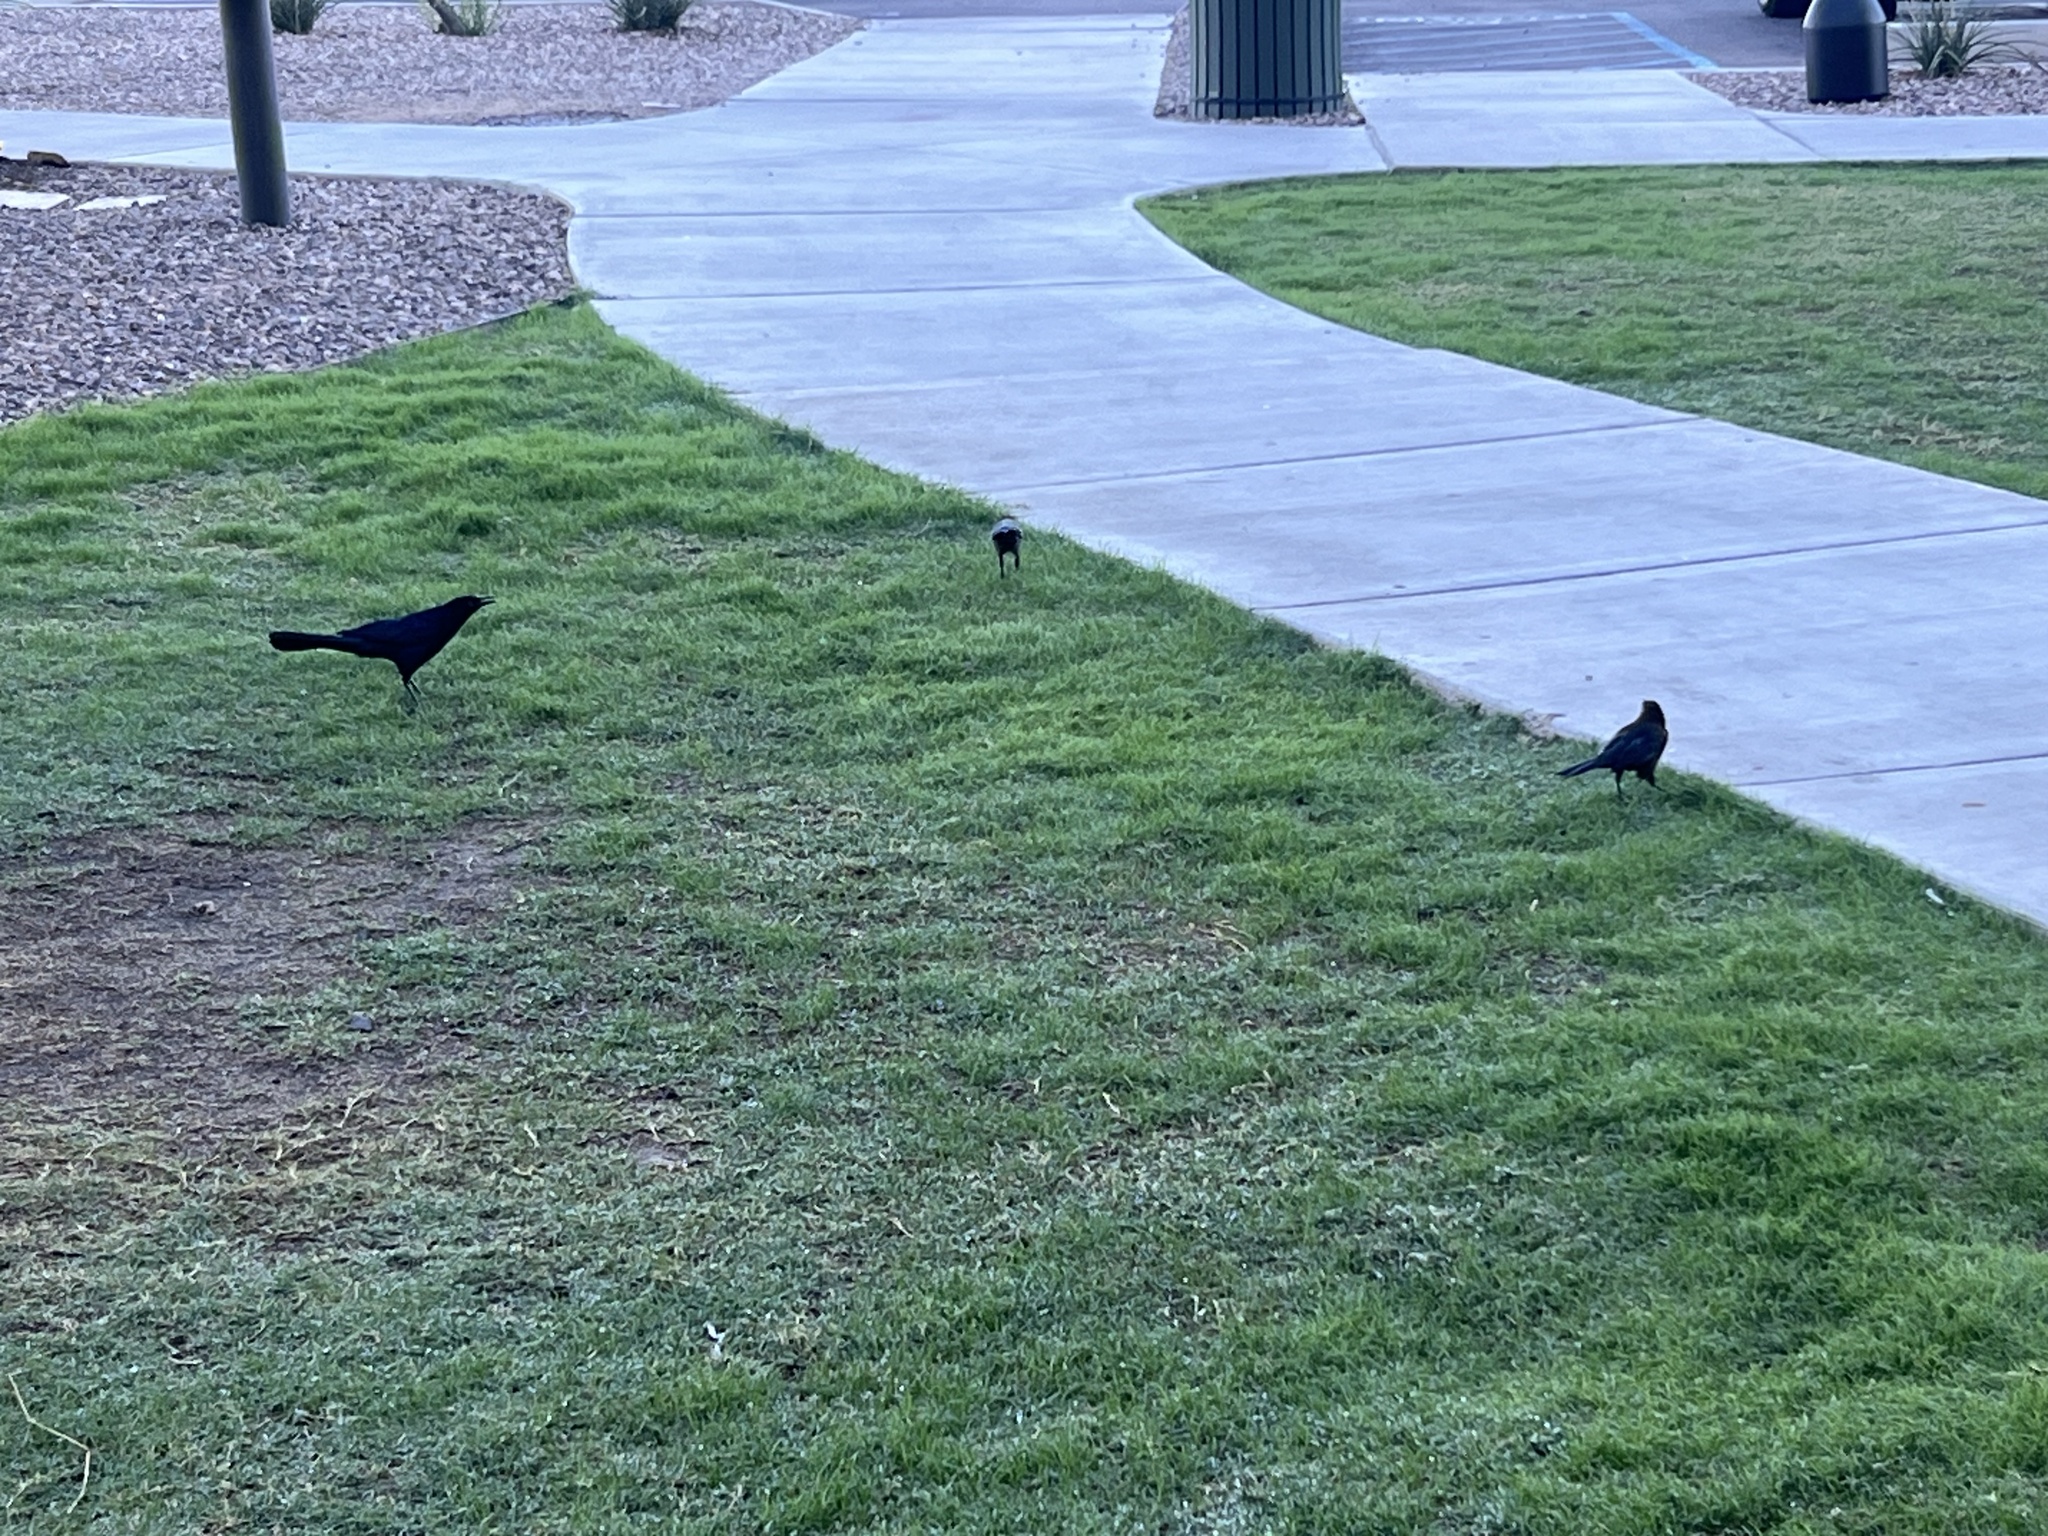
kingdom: Animalia
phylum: Chordata
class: Aves
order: Passeriformes
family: Icteridae
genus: Quiscalus
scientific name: Quiscalus mexicanus
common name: Great-tailed grackle
